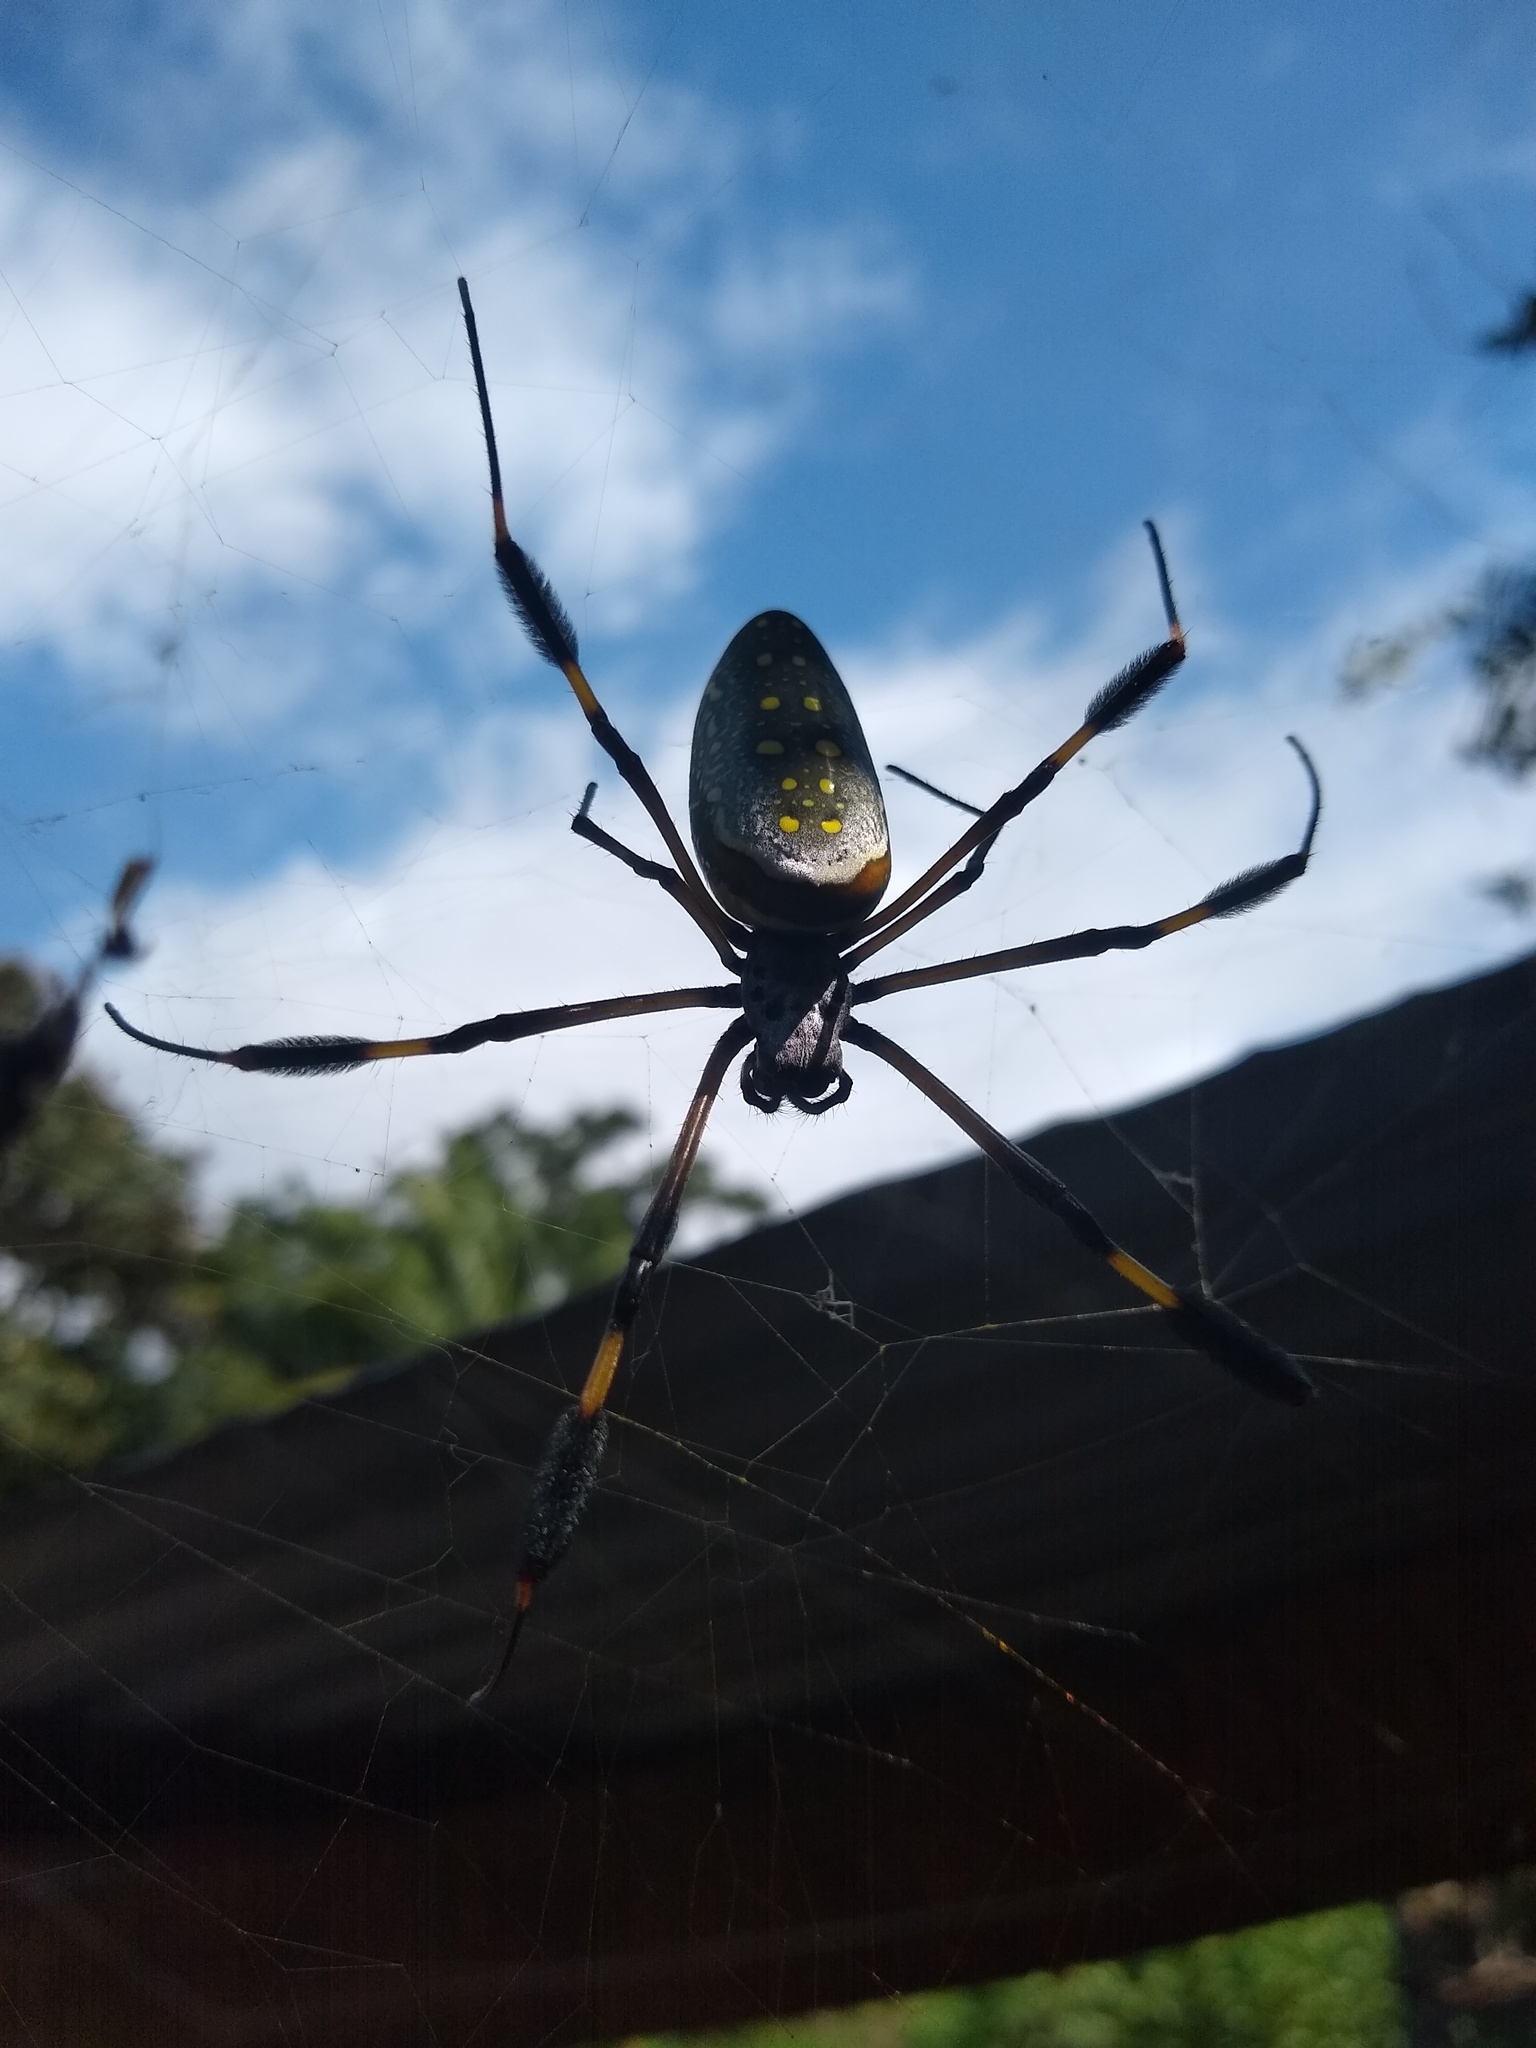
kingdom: Animalia
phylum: Arthropoda
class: Arachnida
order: Araneae
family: Araneidae
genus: Trichonephila
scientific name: Trichonephila clavipes
